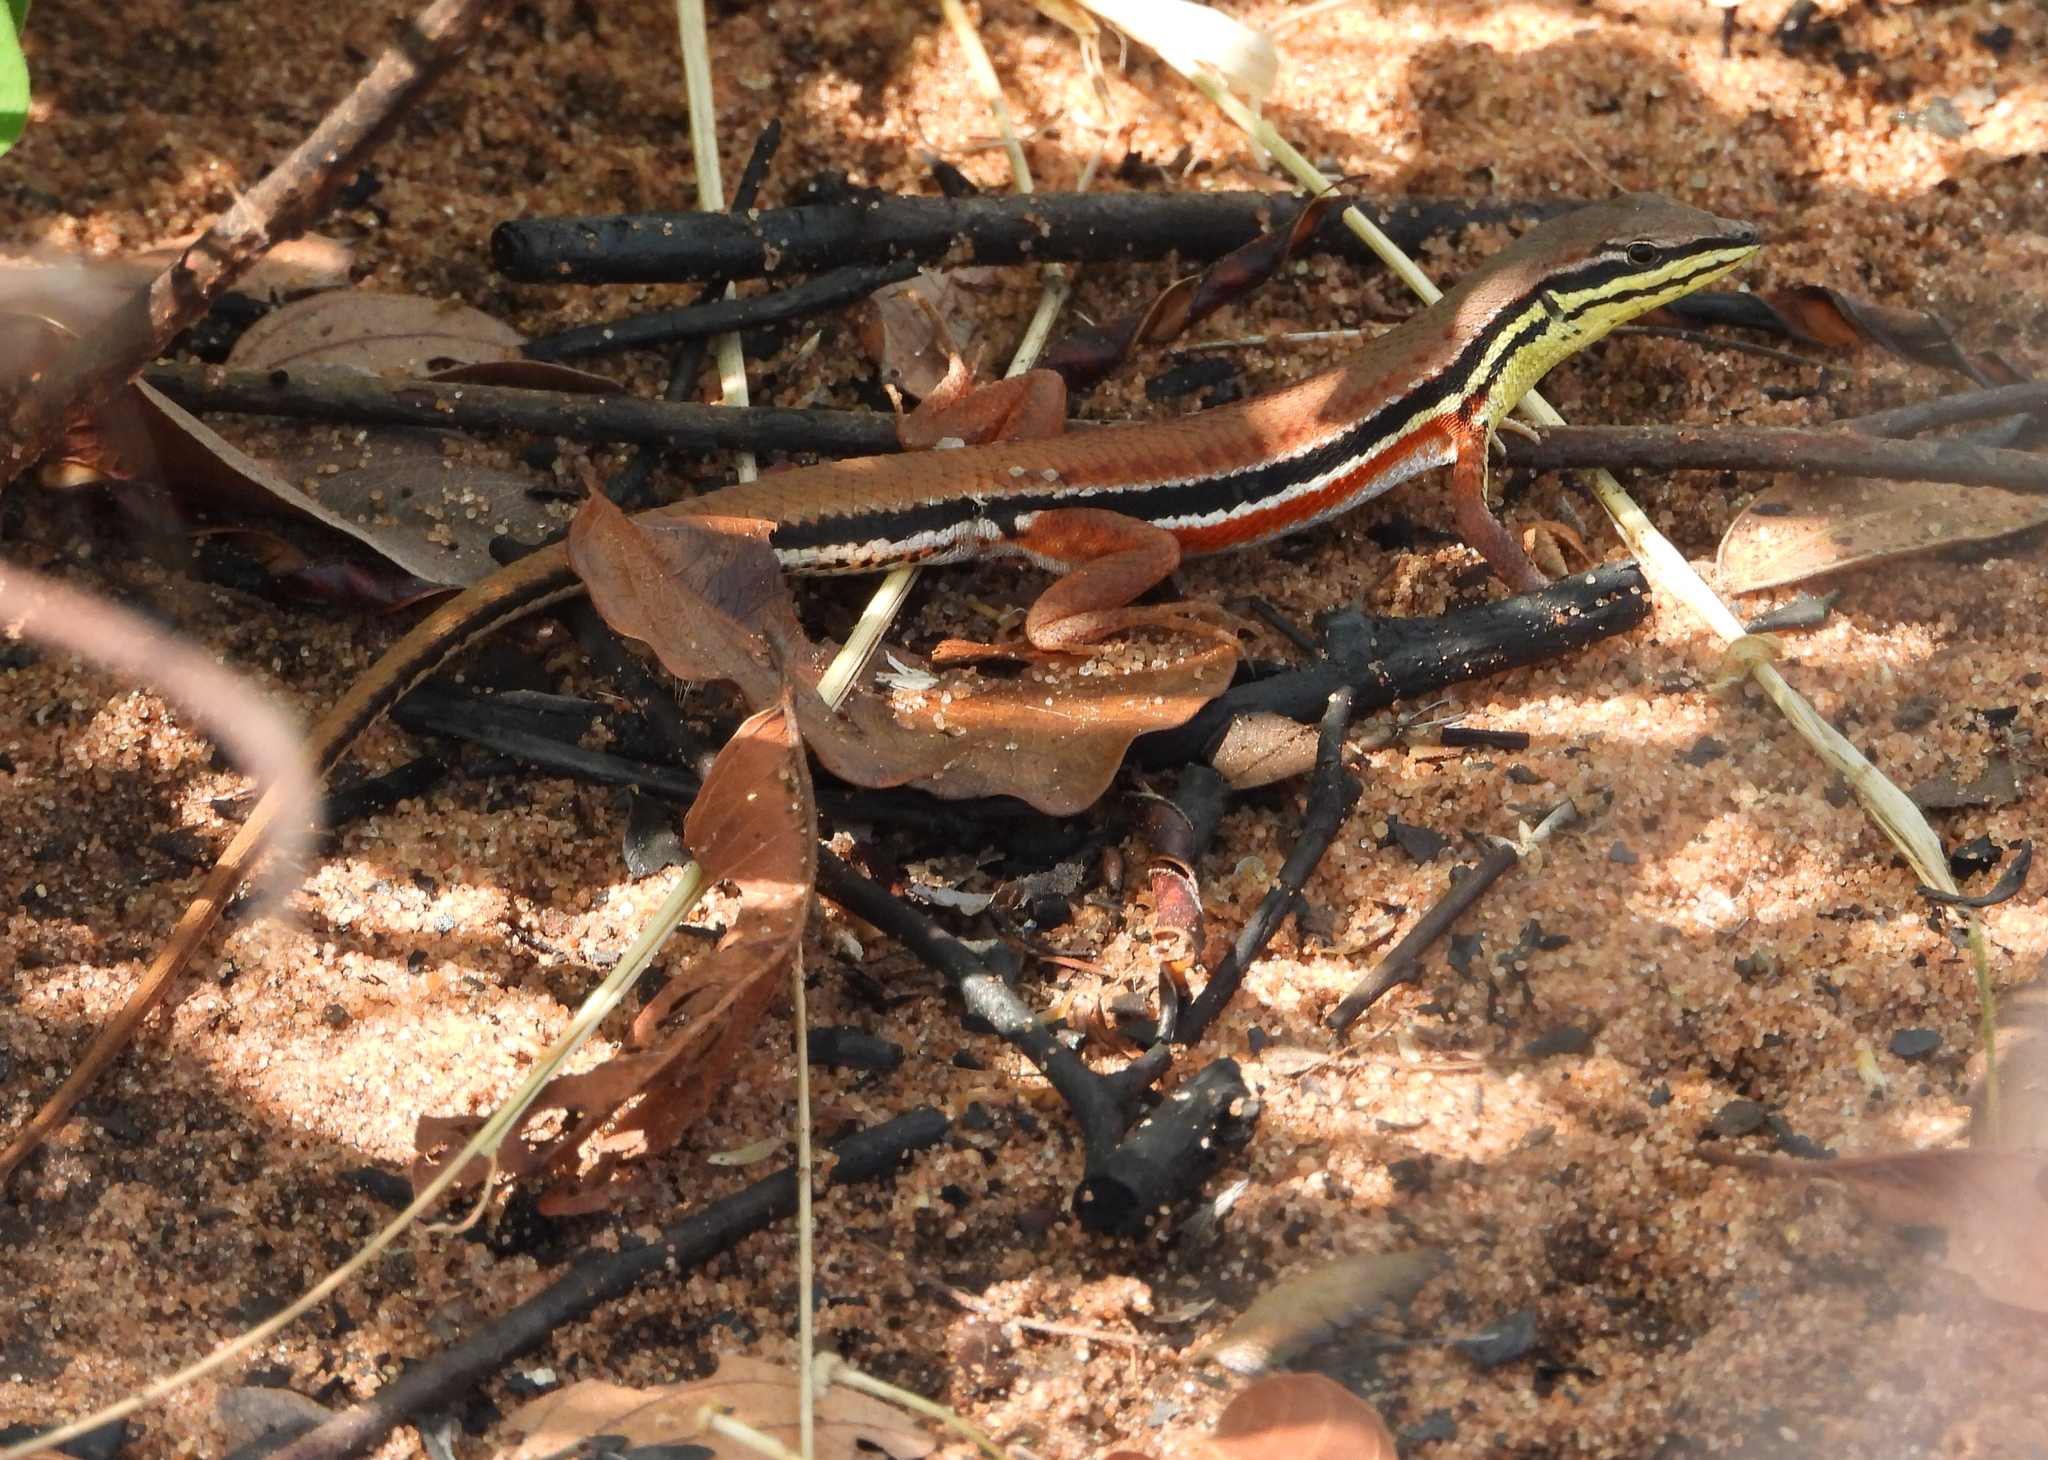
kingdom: Animalia
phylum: Chordata
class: Squamata
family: Lacertidae
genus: Ichnotropis
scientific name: Ichnotropis capensis
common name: Cape rough-scaled lizard
